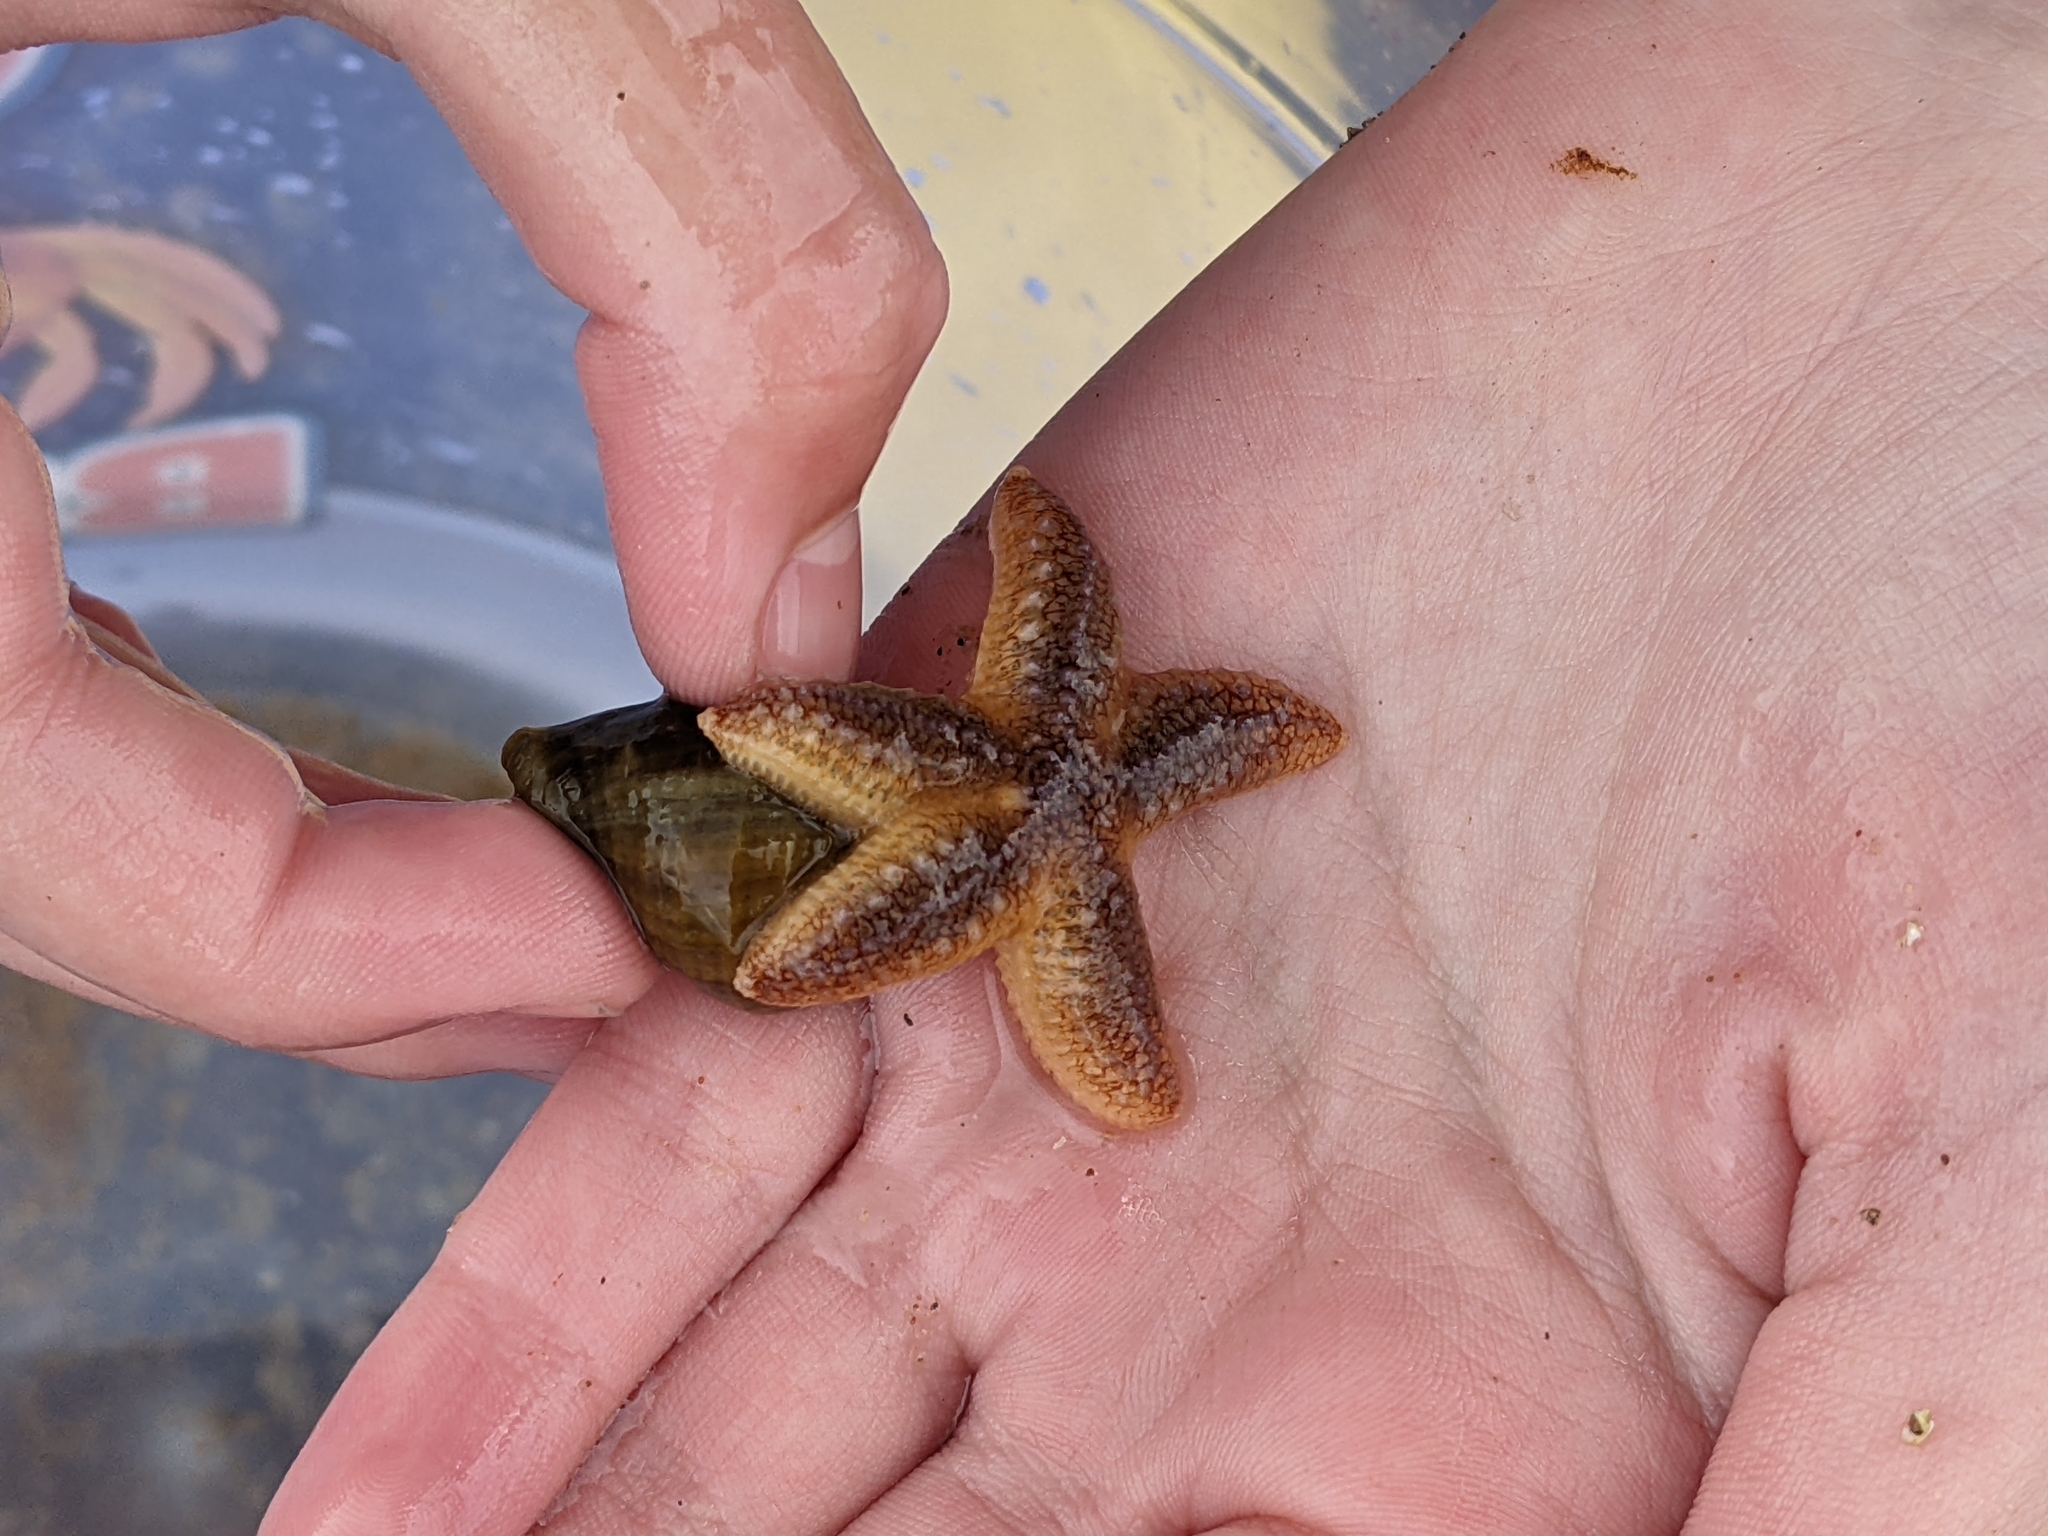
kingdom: Animalia
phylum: Echinodermata
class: Asteroidea
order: Forcipulatida
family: Asteriidae
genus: Asterias
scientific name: Asterias rubens
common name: Common starfish
